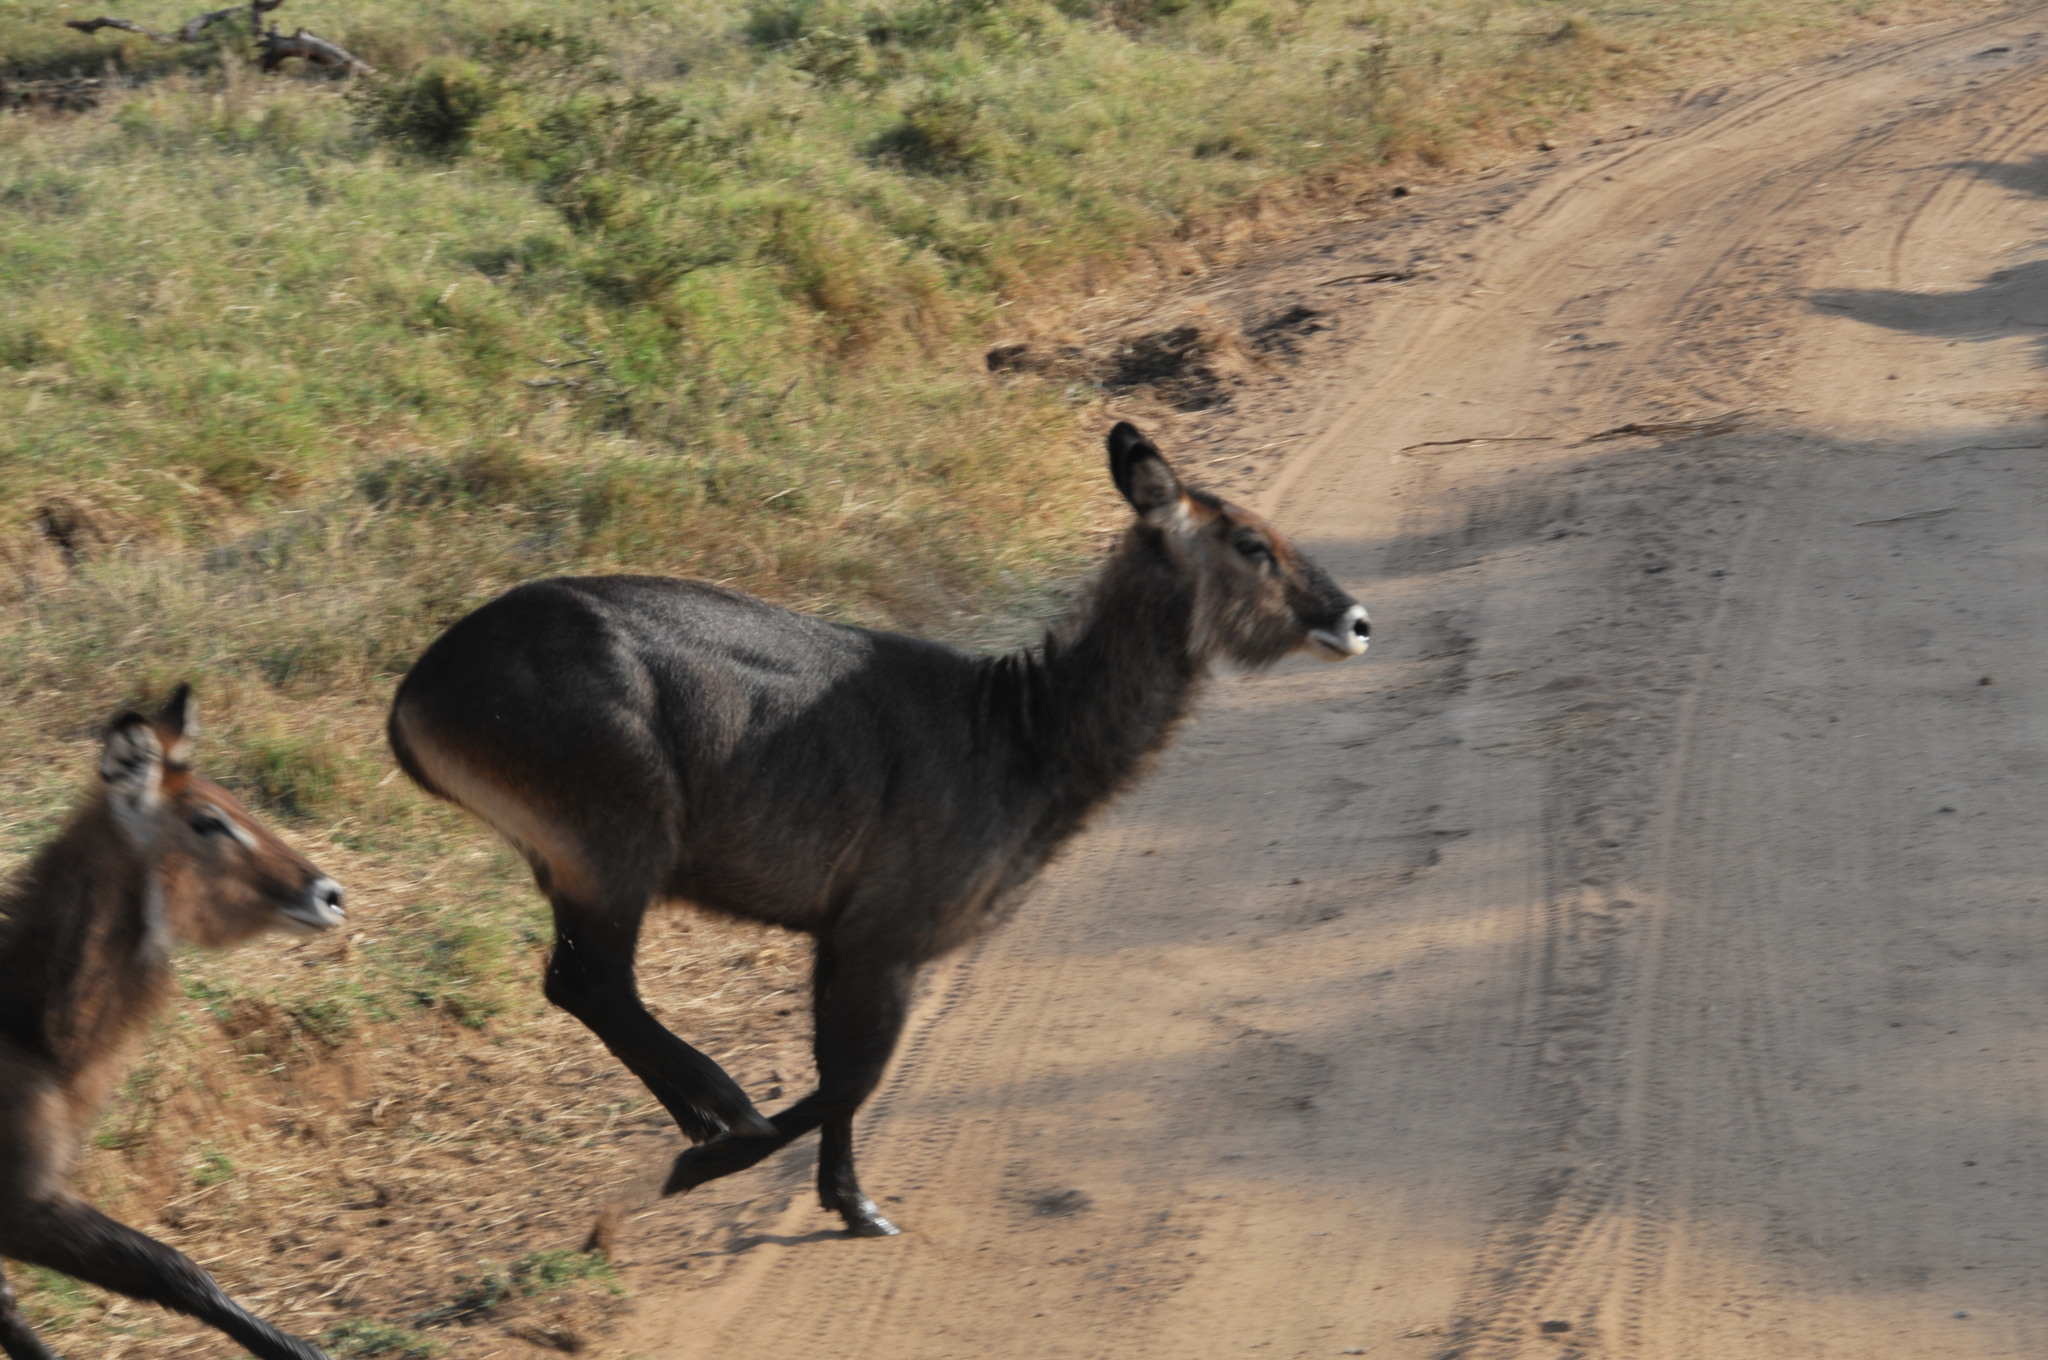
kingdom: Animalia
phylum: Chordata
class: Mammalia
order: Artiodactyla
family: Bovidae
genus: Kobus
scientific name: Kobus ellipsiprymnus
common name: Waterbuck
